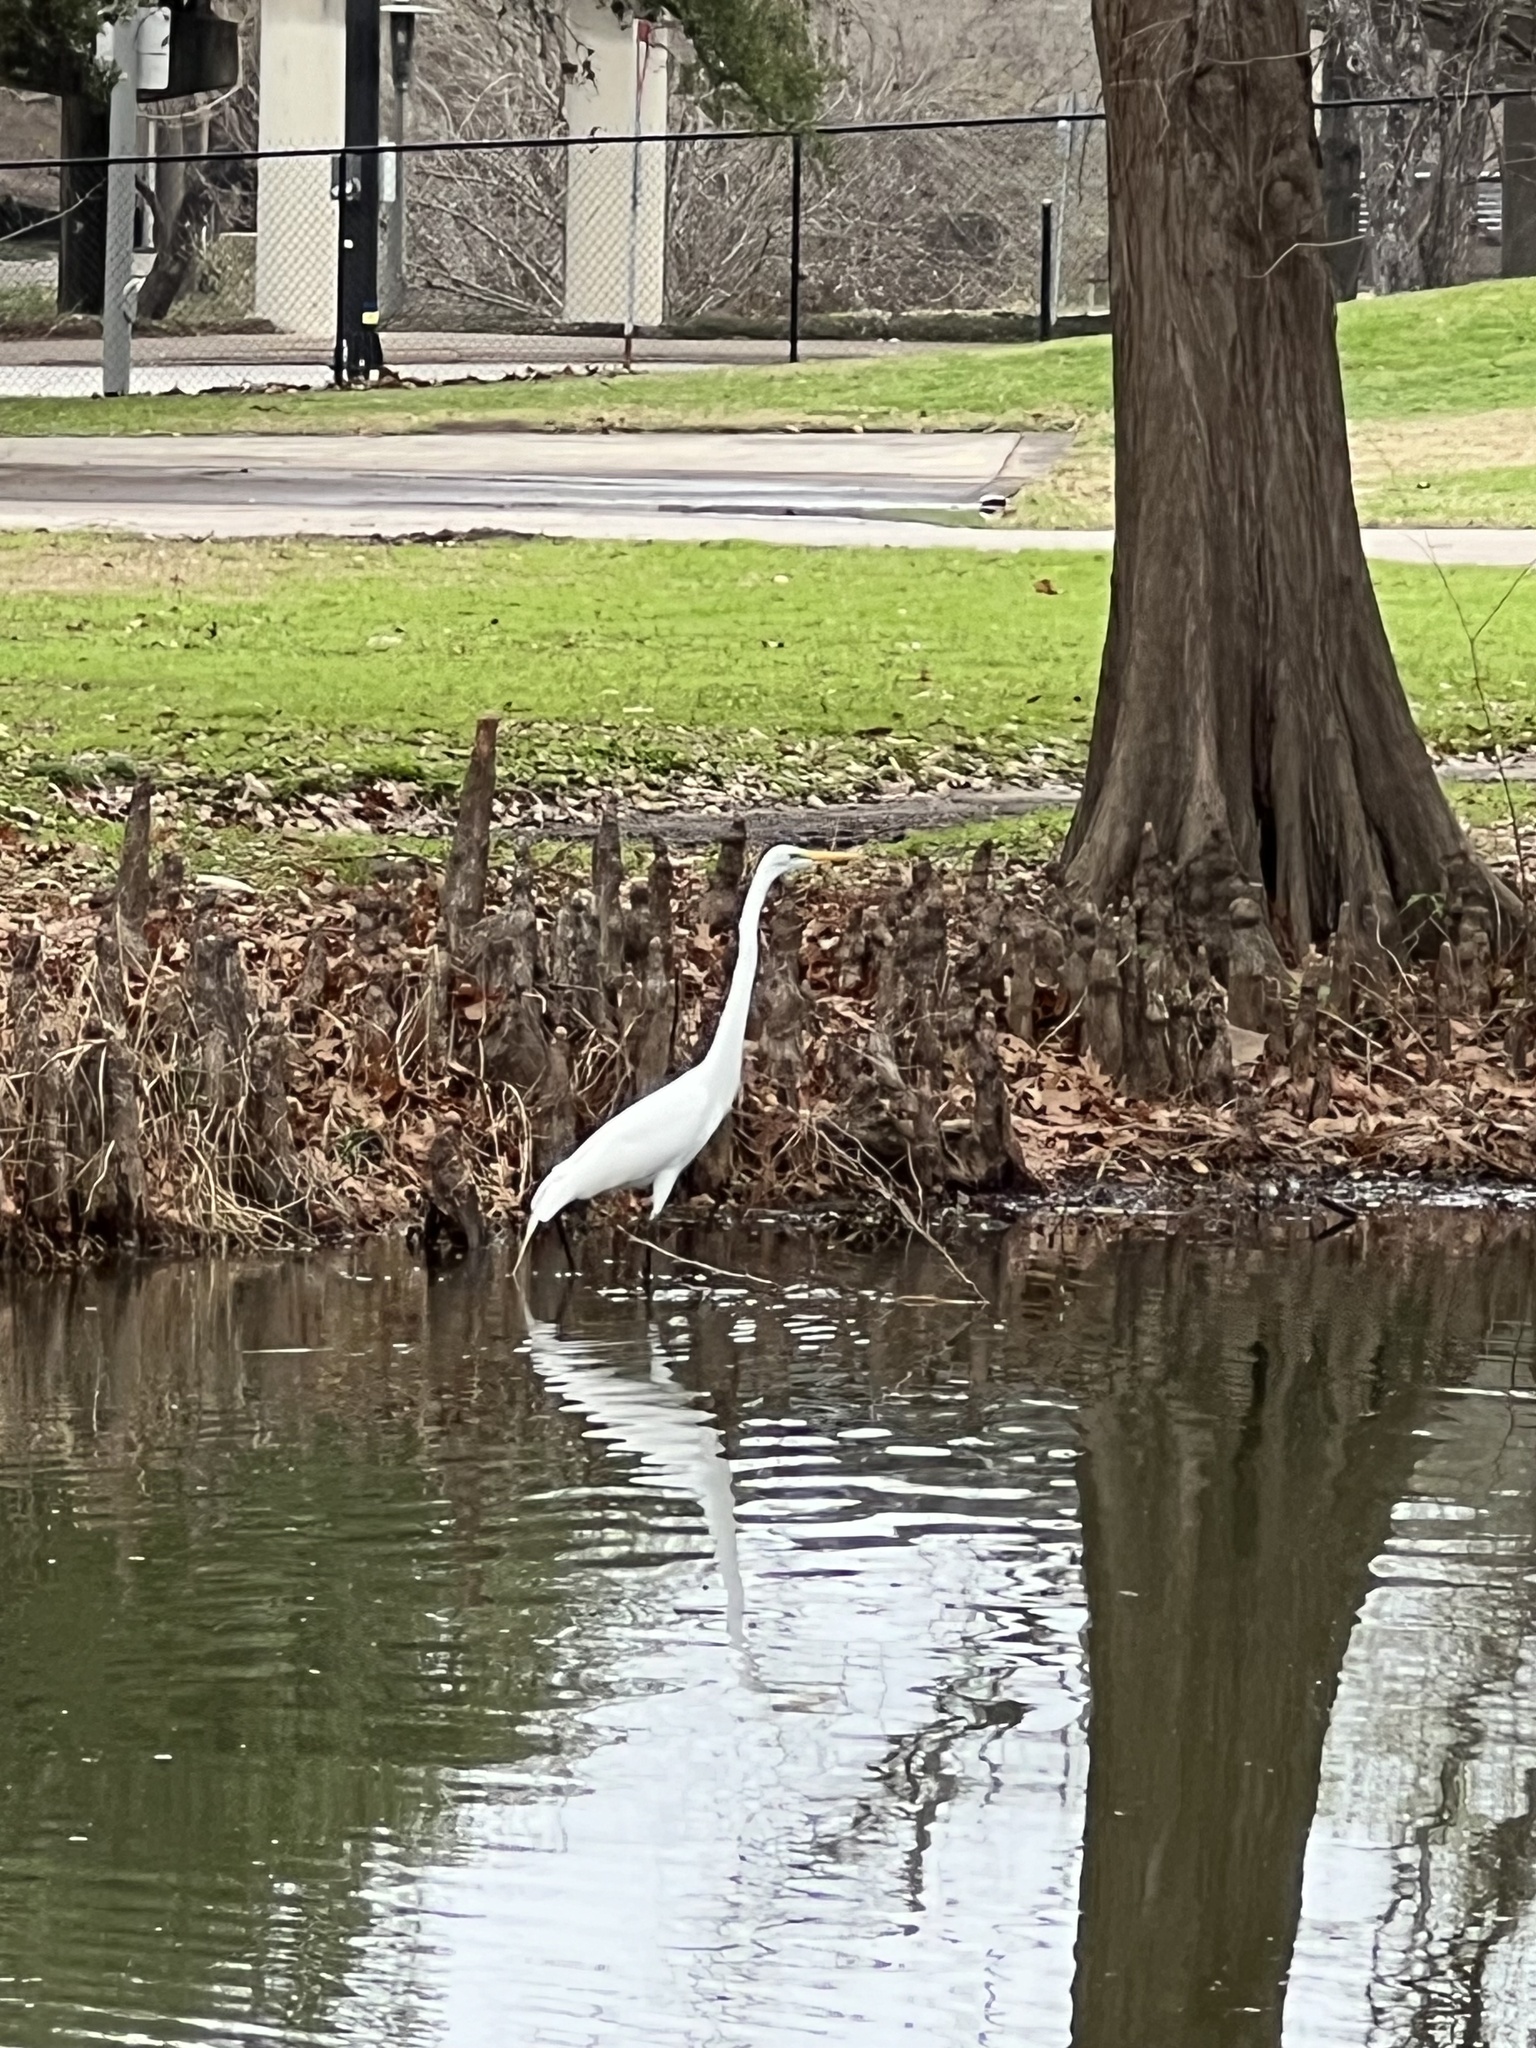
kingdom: Animalia
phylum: Chordata
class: Aves
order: Pelecaniformes
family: Ardeidae
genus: Ardea
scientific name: Ardea alba
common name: Great egret
